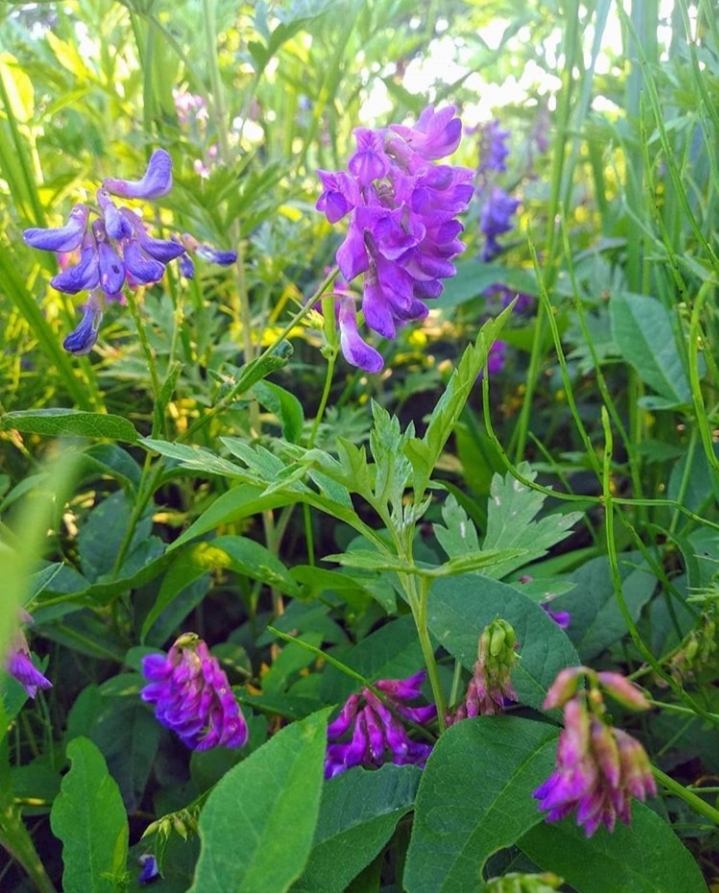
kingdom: Plantae
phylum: Tracheophyta
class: Magnoliopsida
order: Fabales
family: Fabaceae
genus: Vicia
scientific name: Vicia unijuga
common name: Two-leaf vetch
